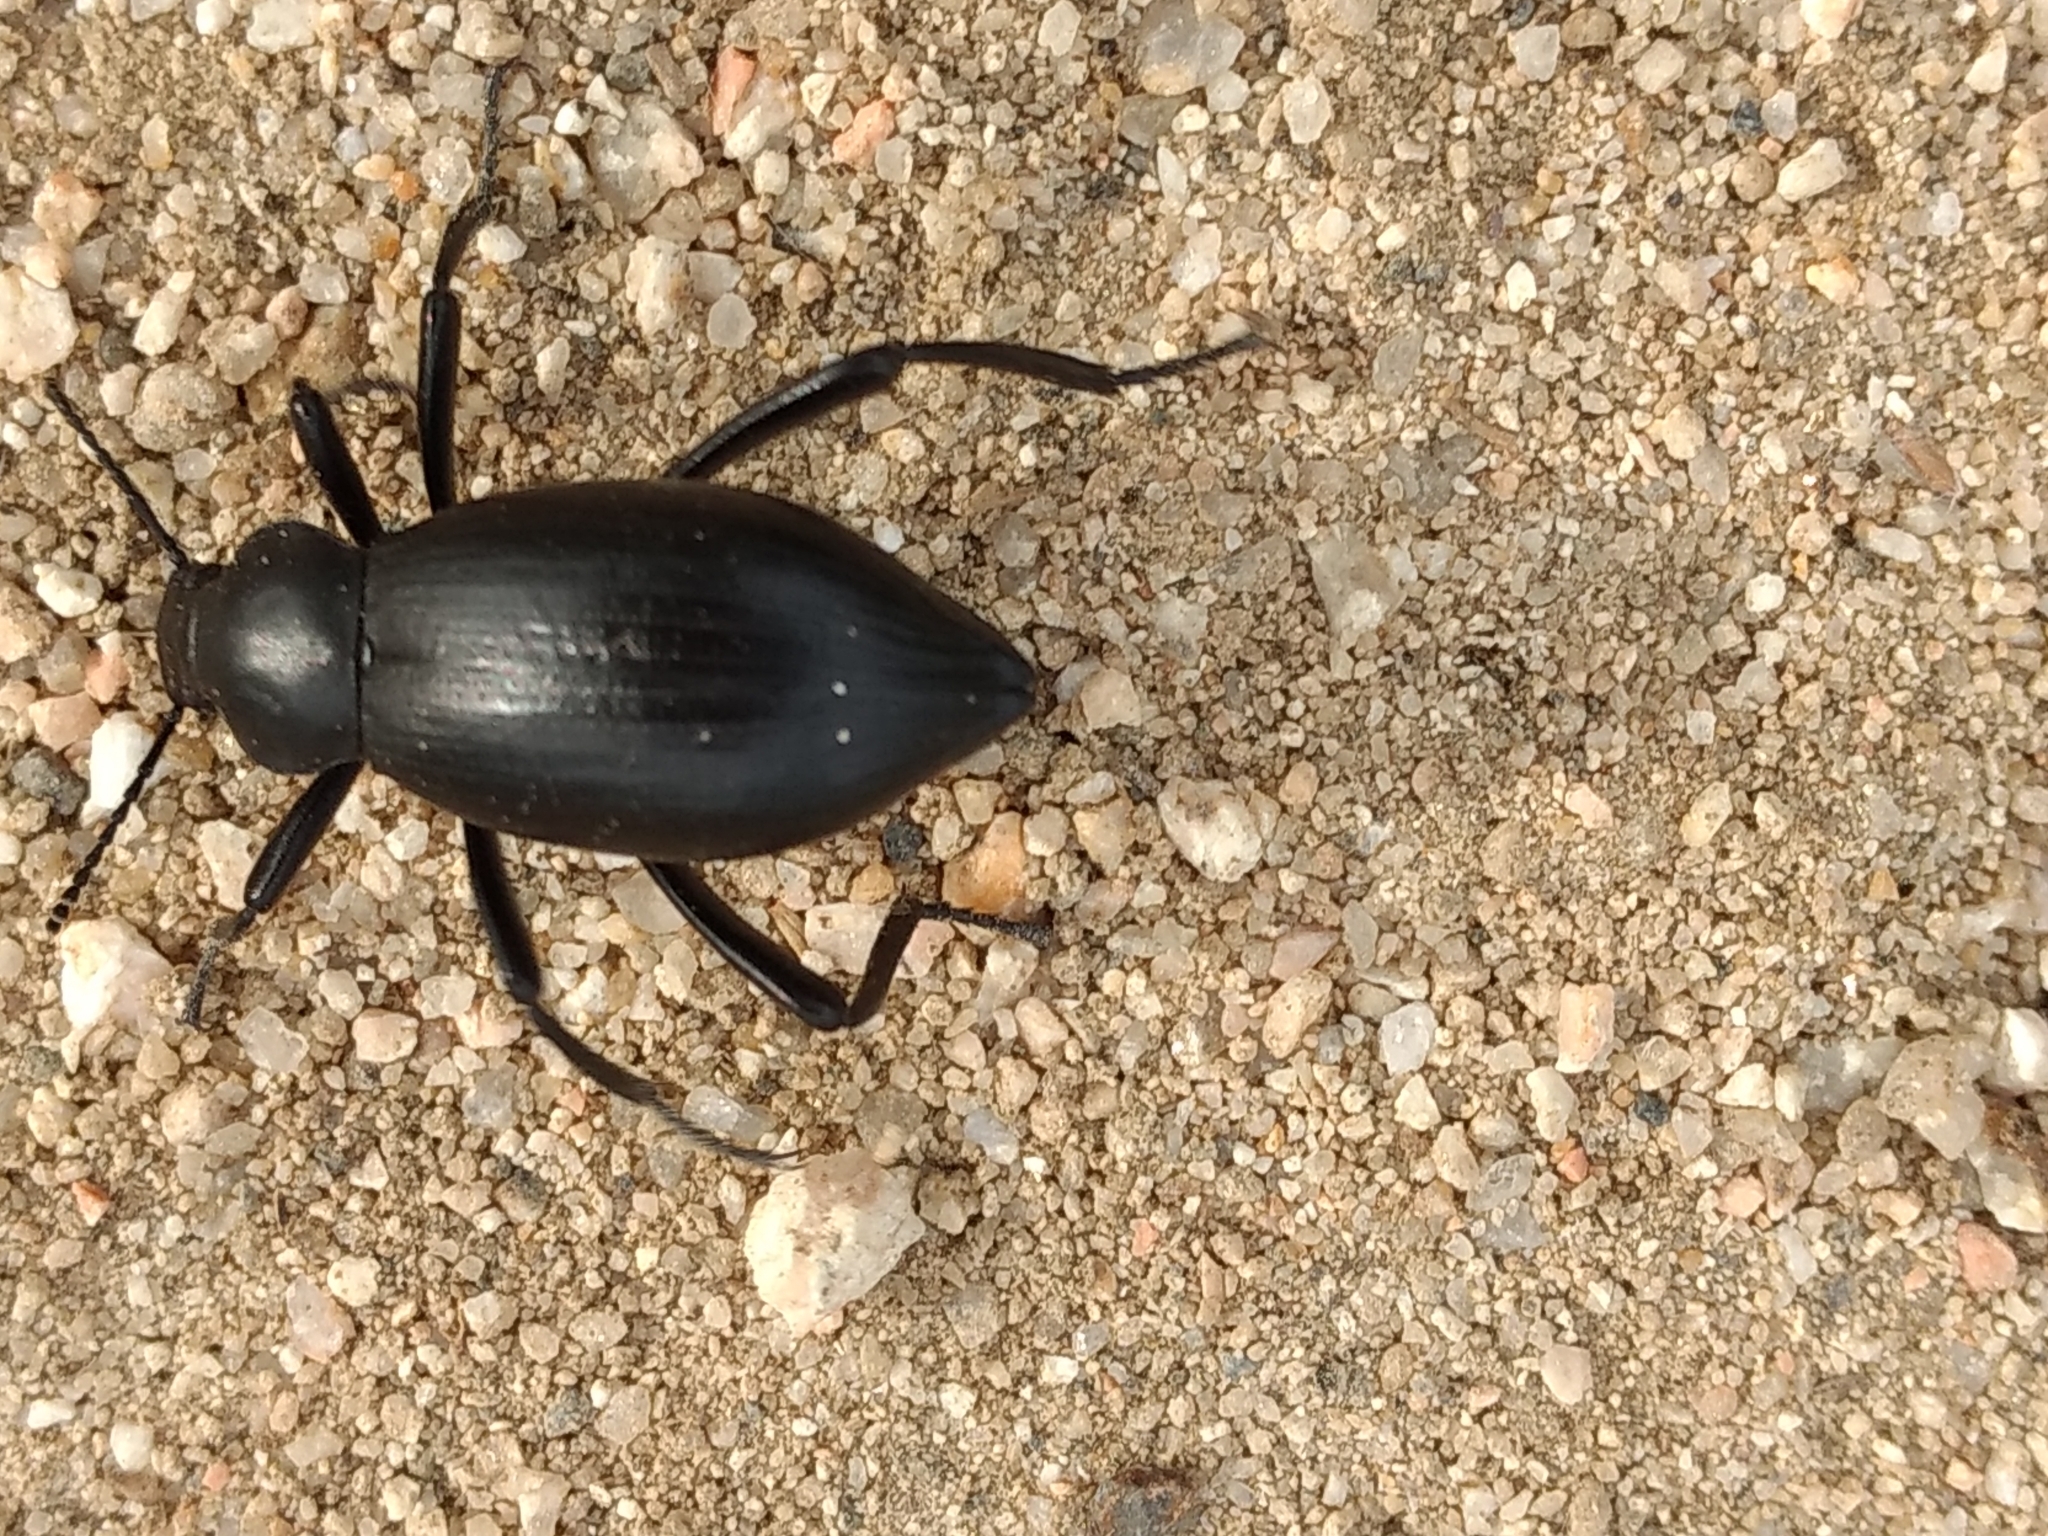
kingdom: Animalia
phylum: Arthropoda
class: Insecta
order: Coleoptera
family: Tenebrionidae
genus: Eleodes
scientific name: Eleodes gracilis
